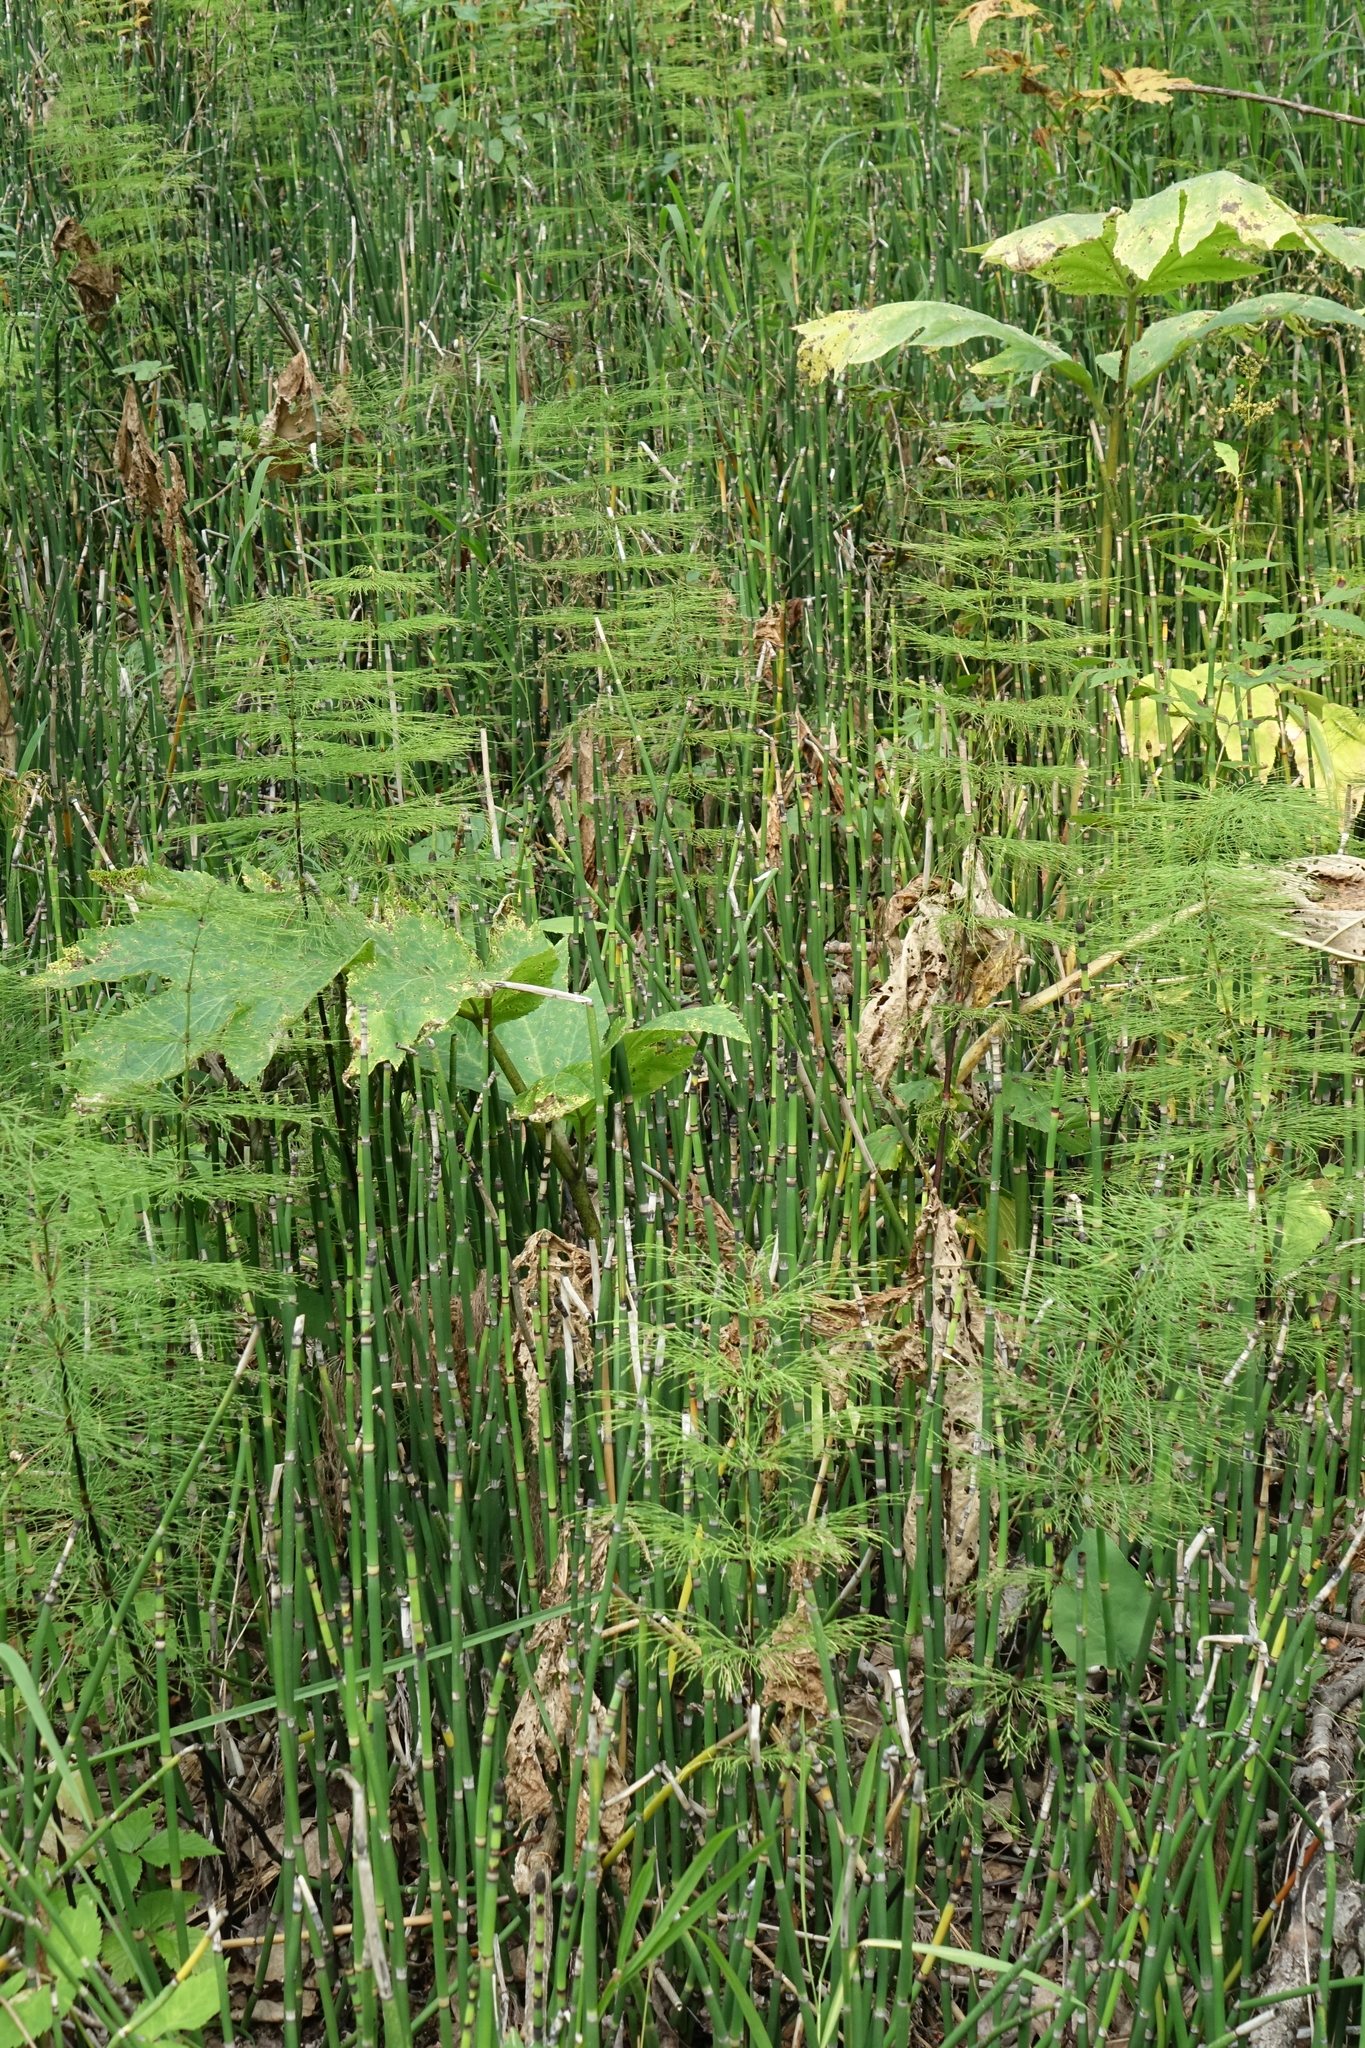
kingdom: Plantae
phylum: Tracheophyta
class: Polypodiopsida
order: Equisetales
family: Equisetaceae
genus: Equisetum
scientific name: Equisetum hyemale
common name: Rough horsetail
